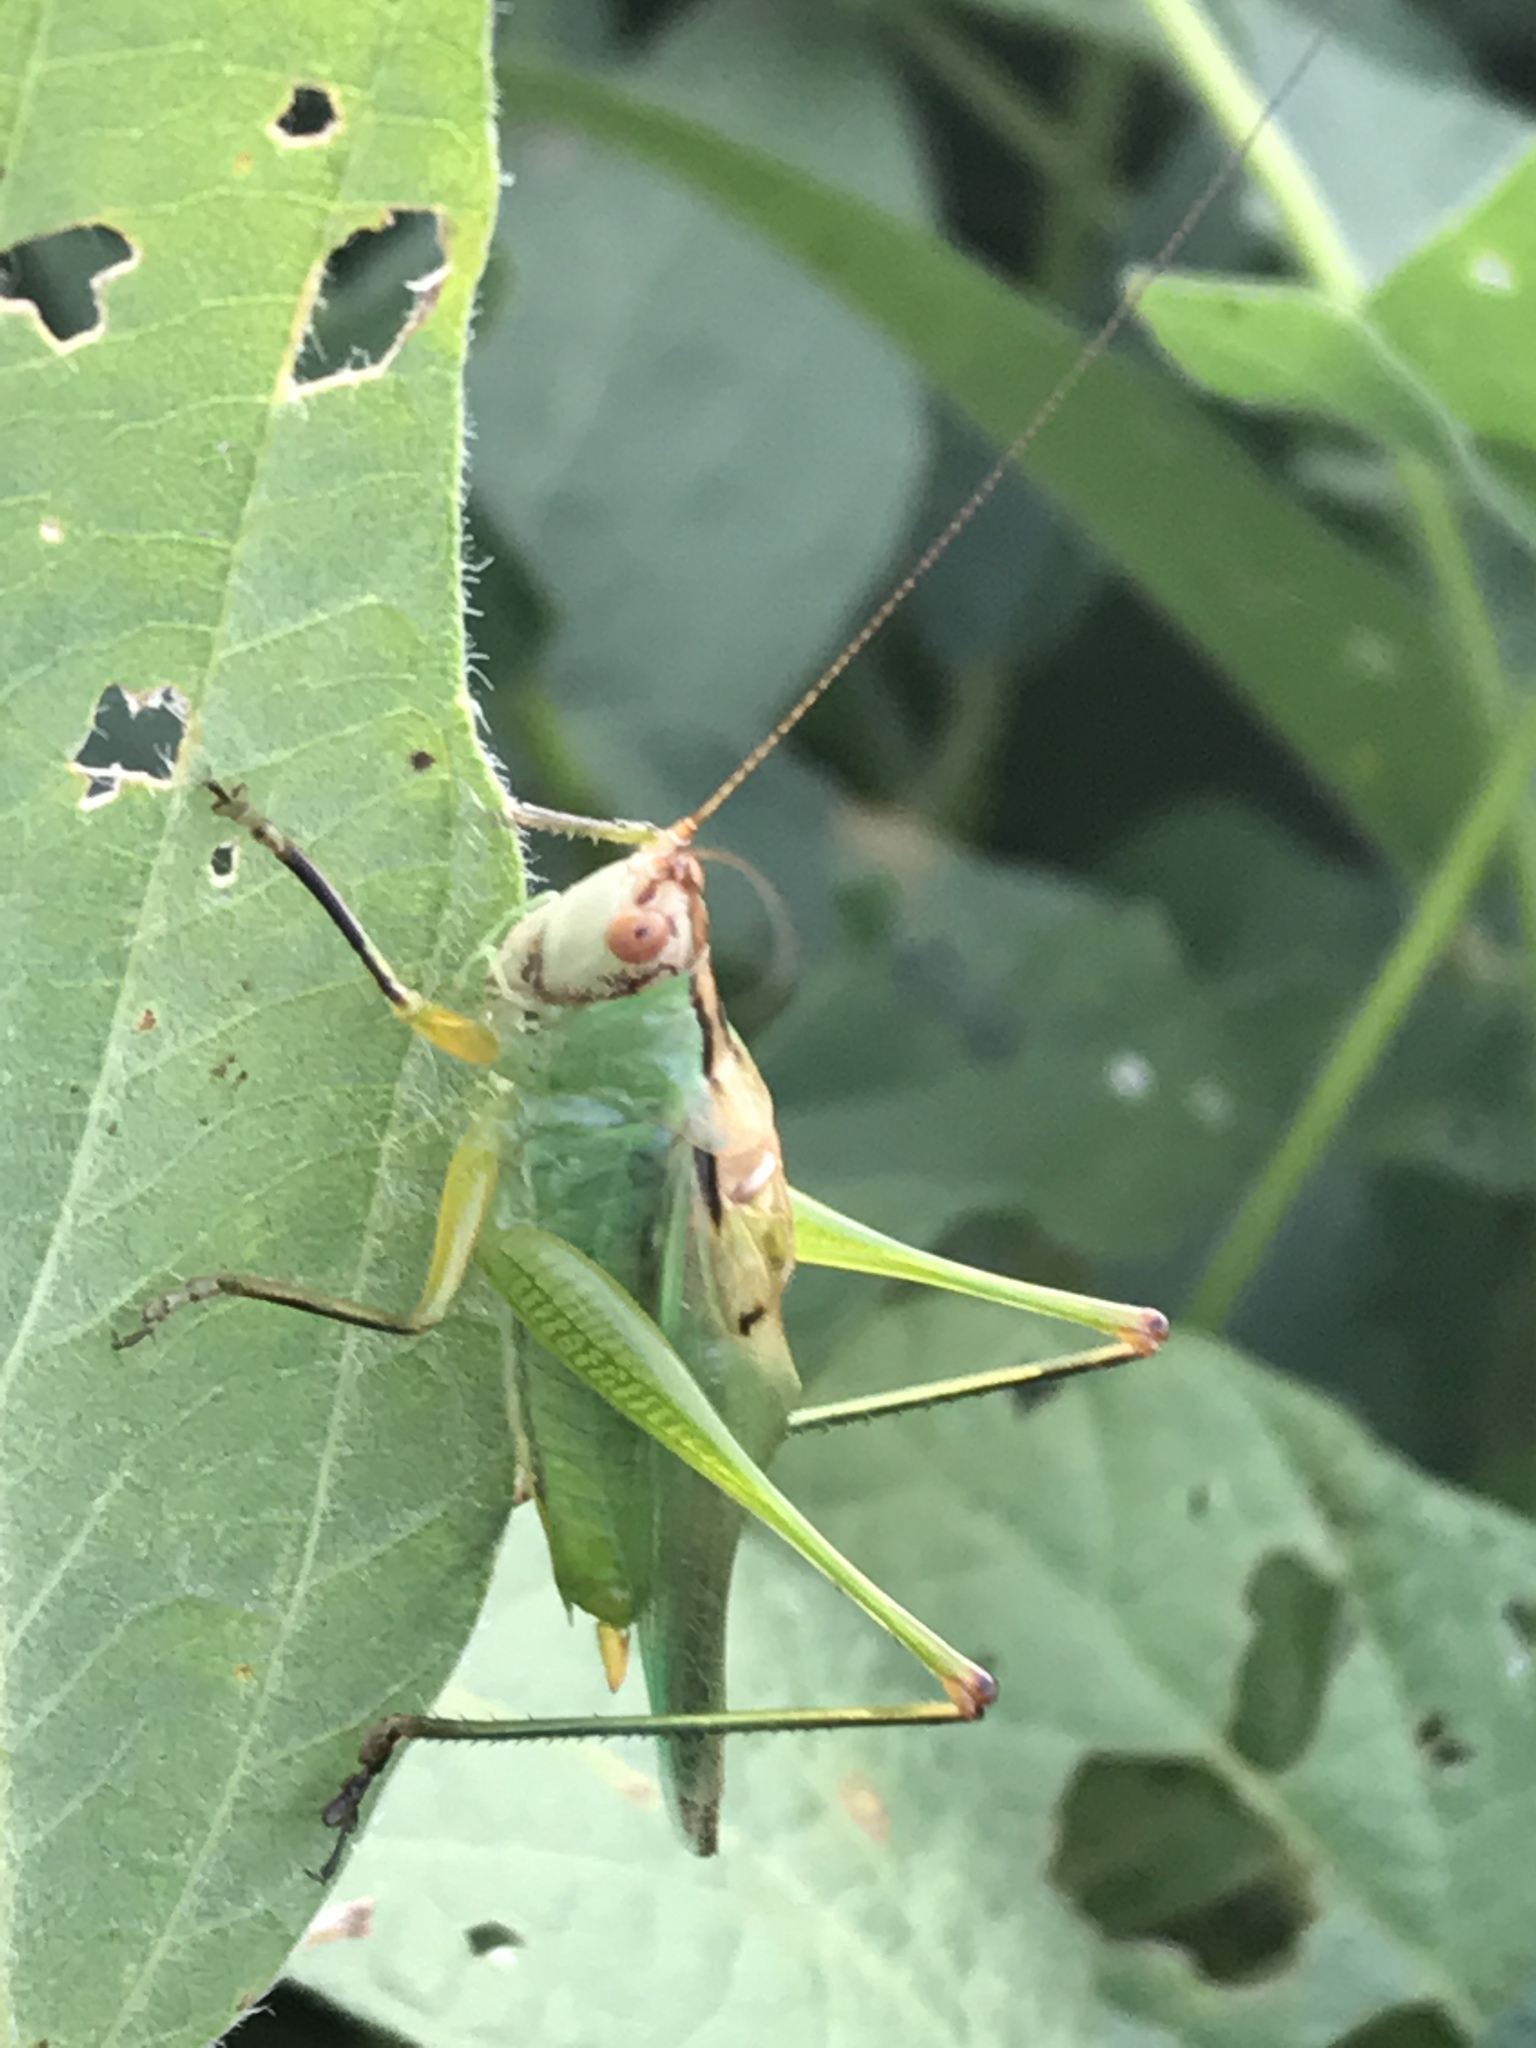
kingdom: Animalia
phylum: Arthropoda
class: Insecta
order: Orthoptera
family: Tettigoniidae
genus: Orchelimum
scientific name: Orchelimum nigripes
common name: Black-legged meadow katydid
